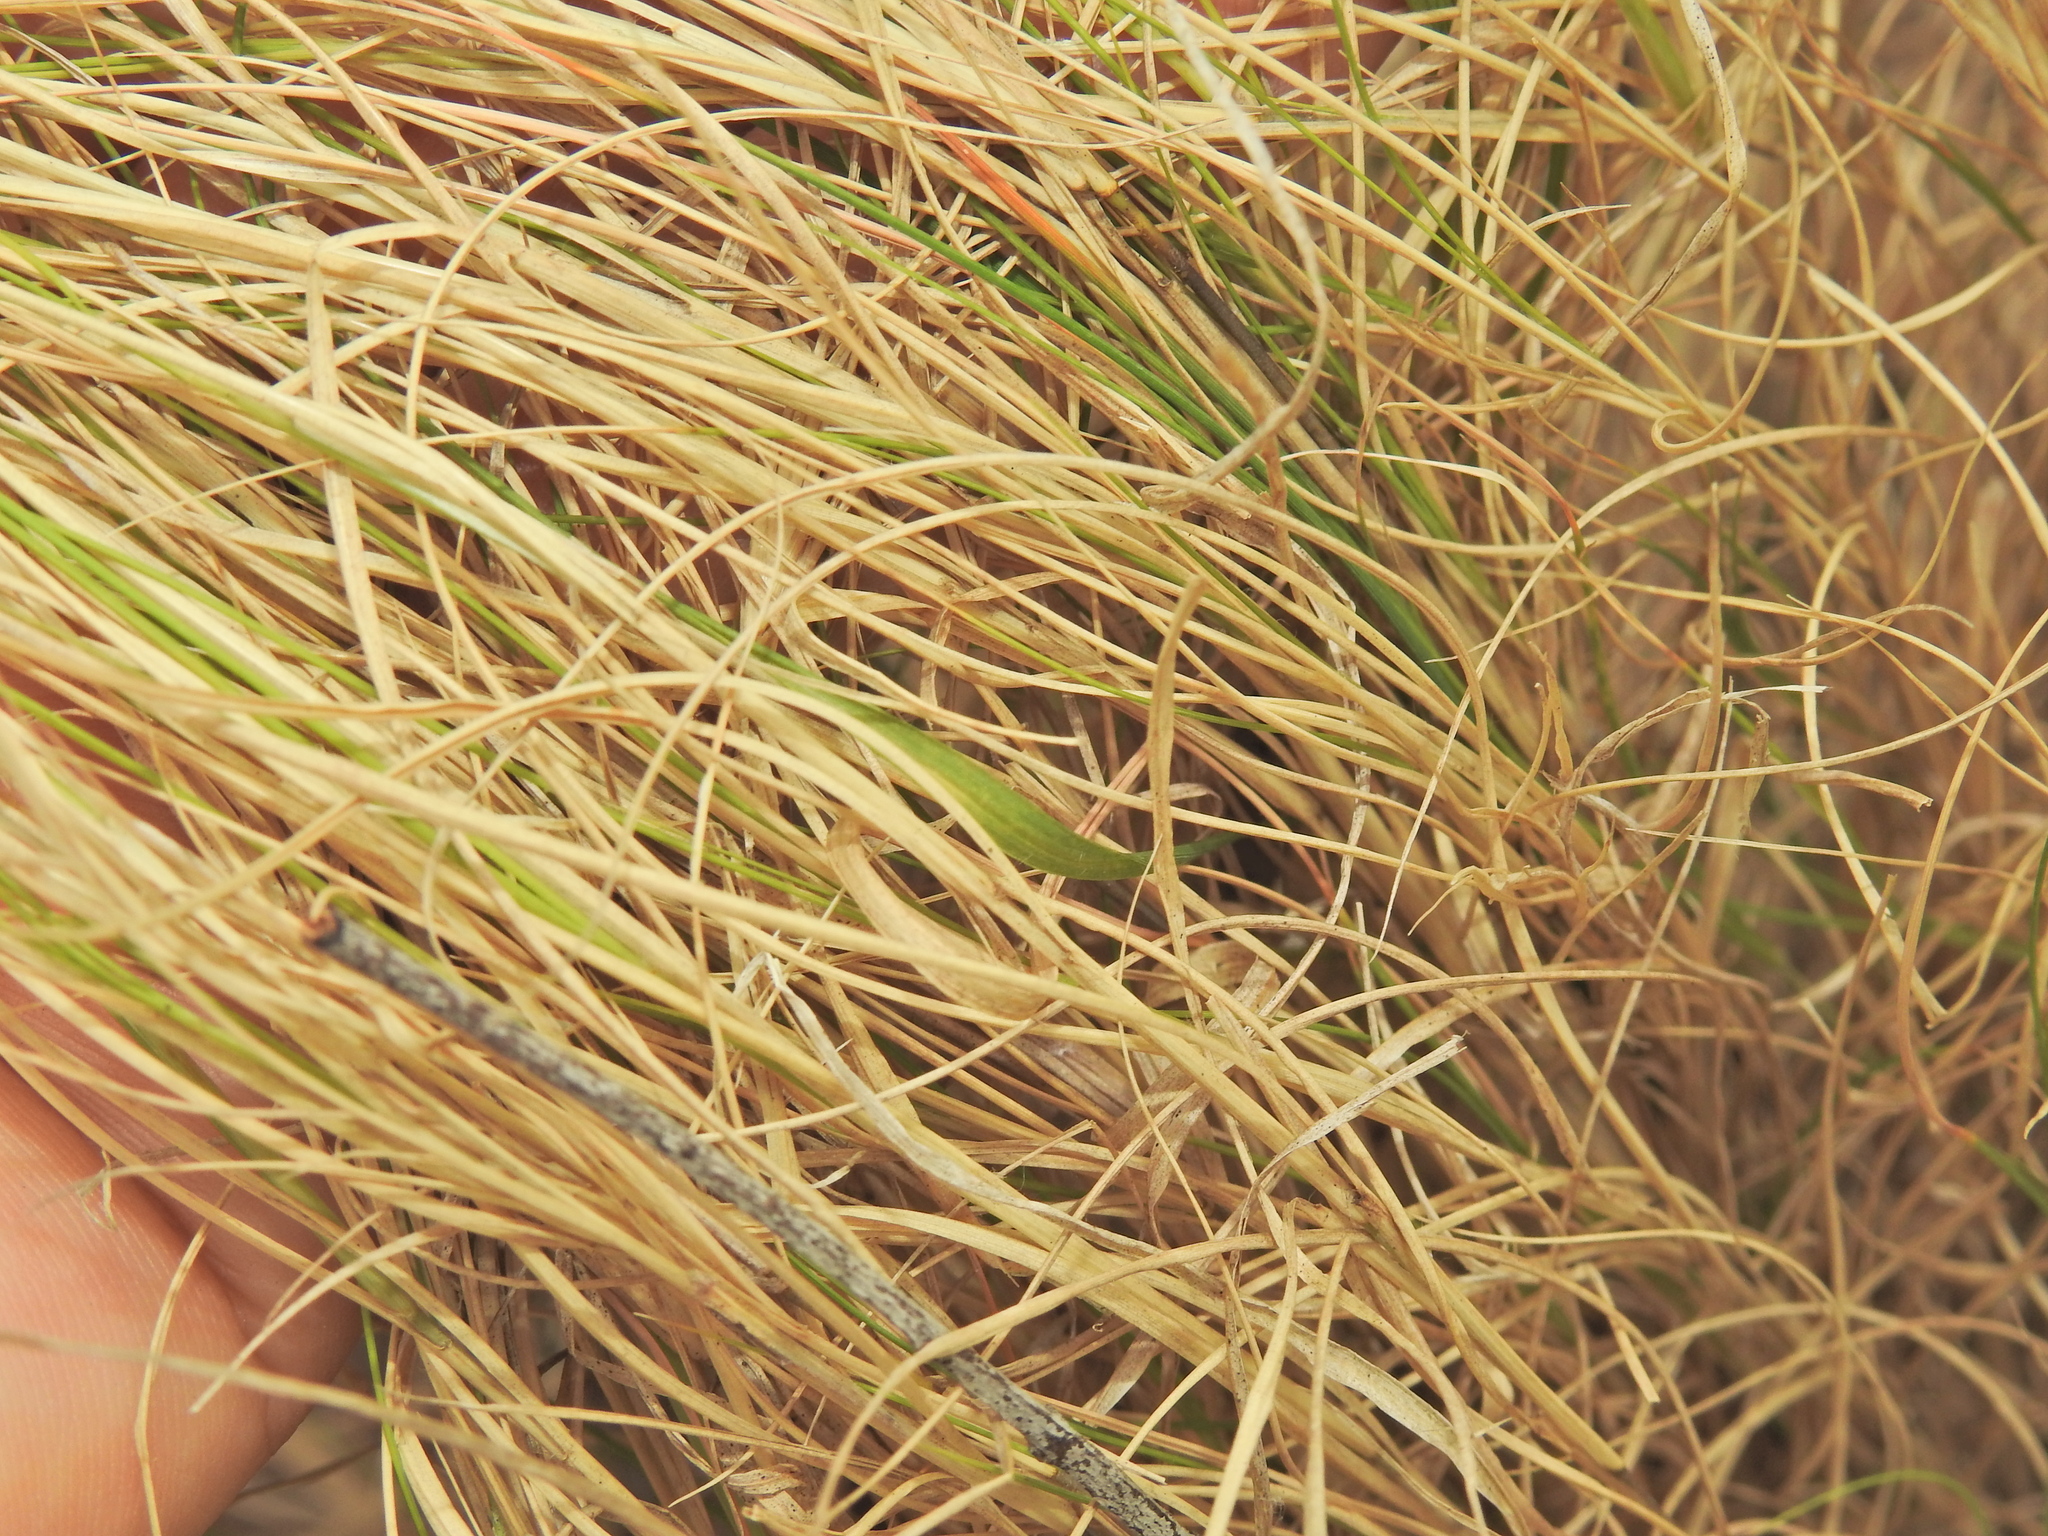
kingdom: Plantae
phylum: Tracheophyta
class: Liliopsida
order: Poales
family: Poaceae
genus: Enteropogon
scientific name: Enteropogon unispiceus
